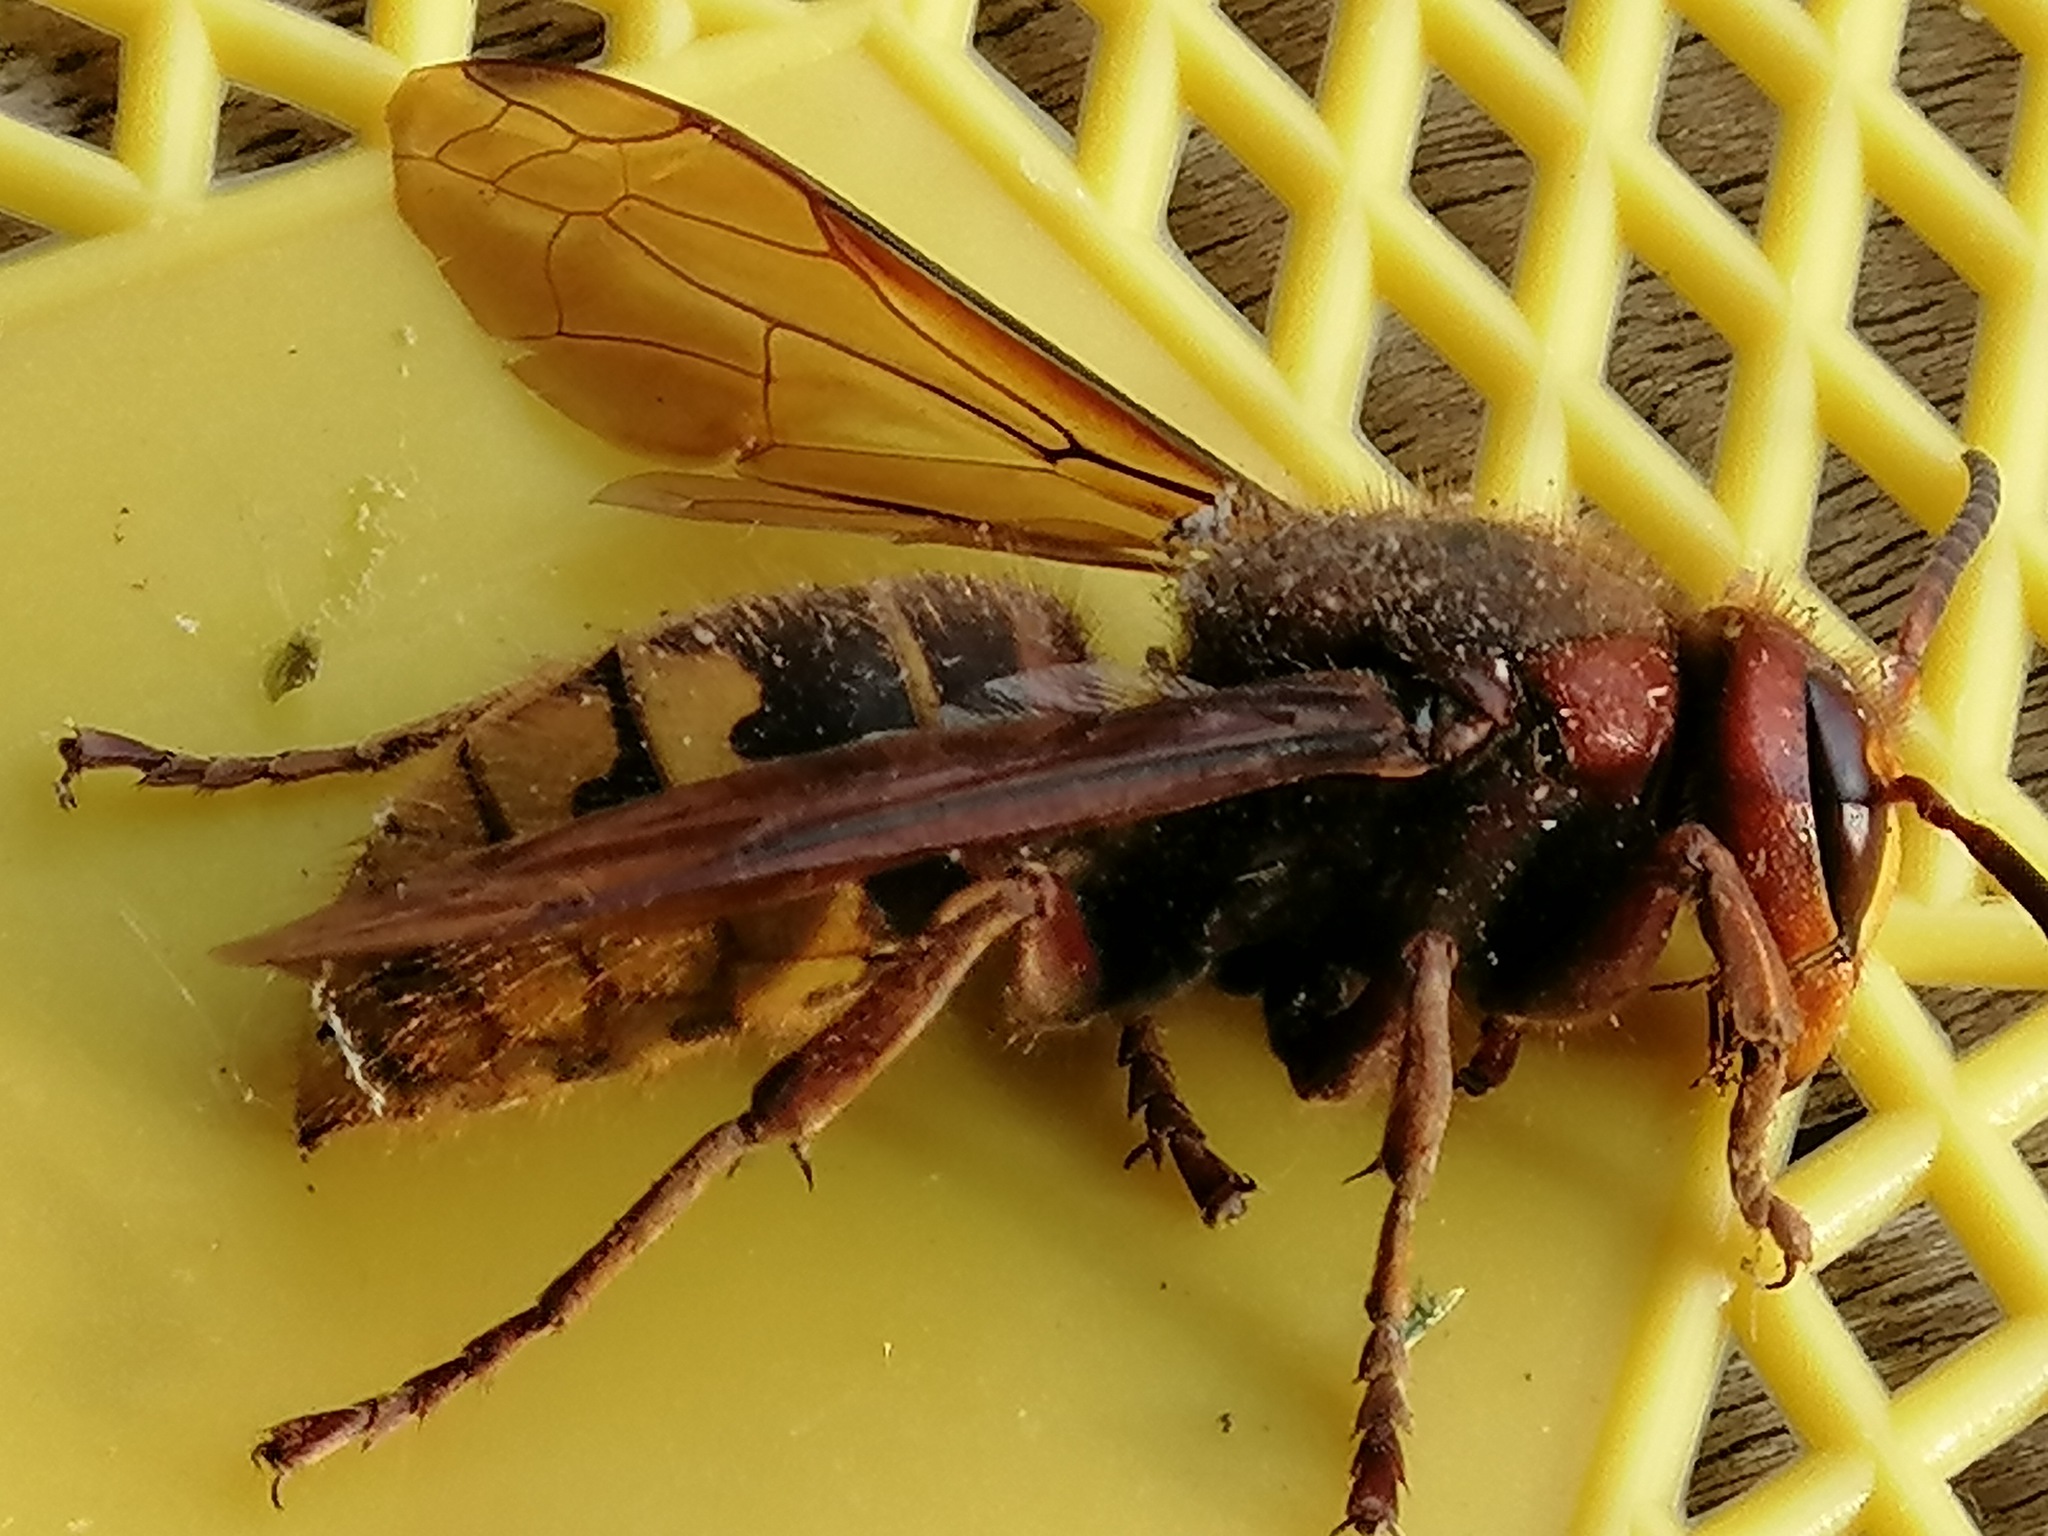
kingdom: Animalia
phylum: Arthropoda
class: Insecta
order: Hymenoptera
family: Vespidae
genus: Vespa
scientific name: Vespa crabro
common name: Hornet
